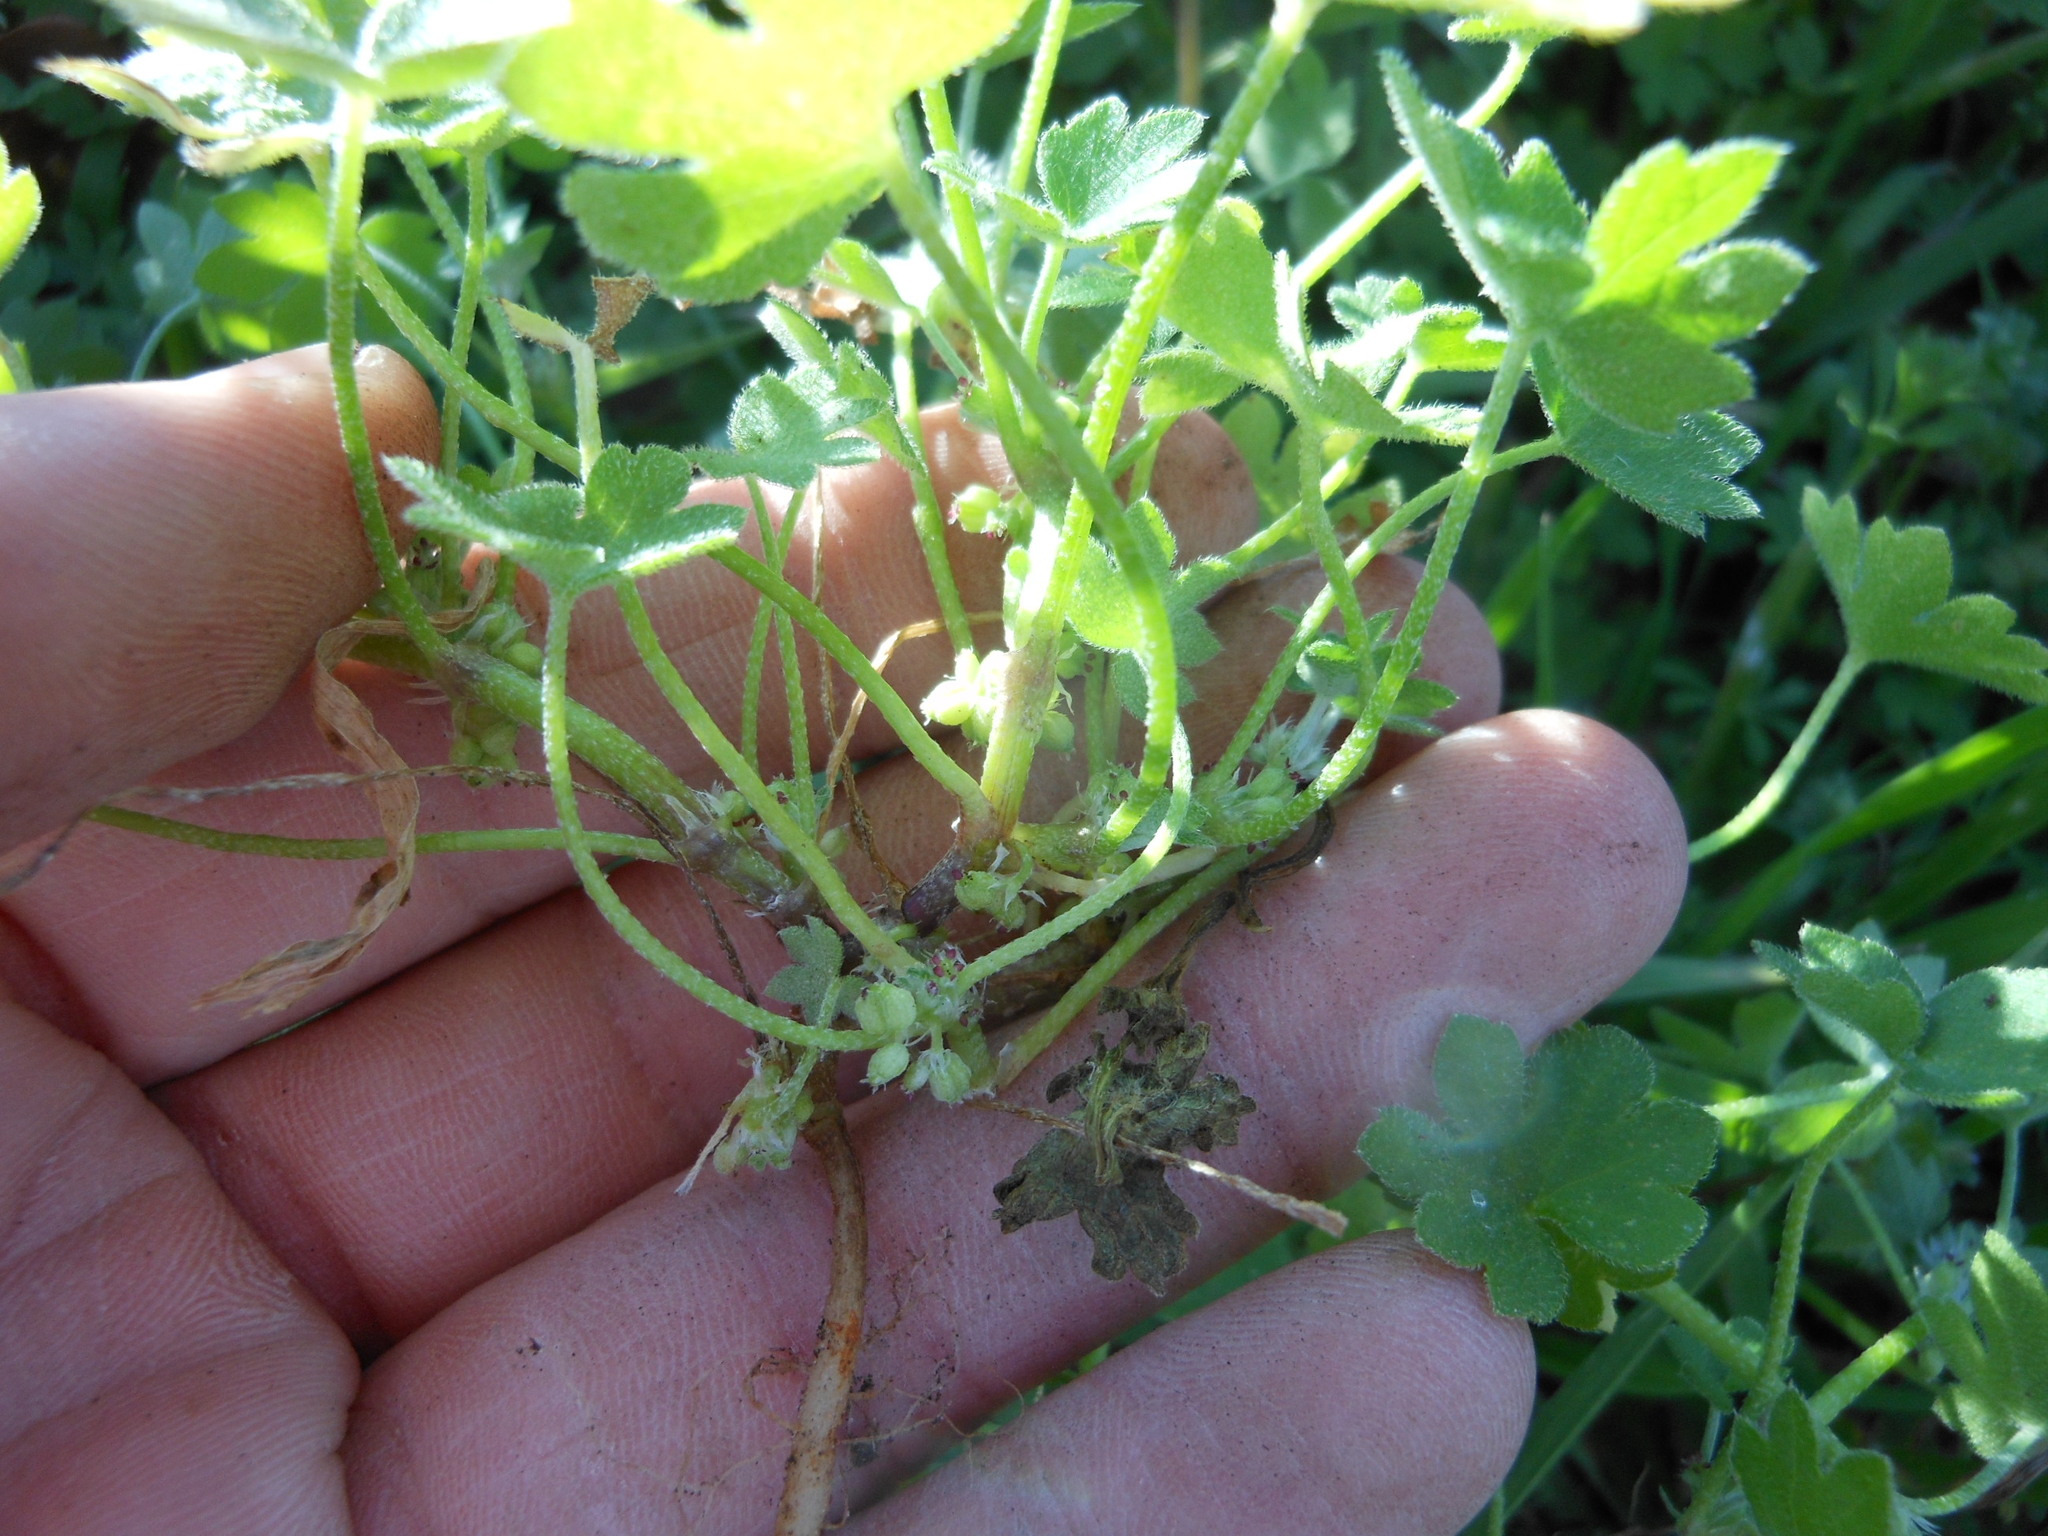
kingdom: Plantae
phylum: Tracheophyta
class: Magnoliopsida
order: Apiales
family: Apiaceae
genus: Bowlesia
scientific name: Bowlesia incana
